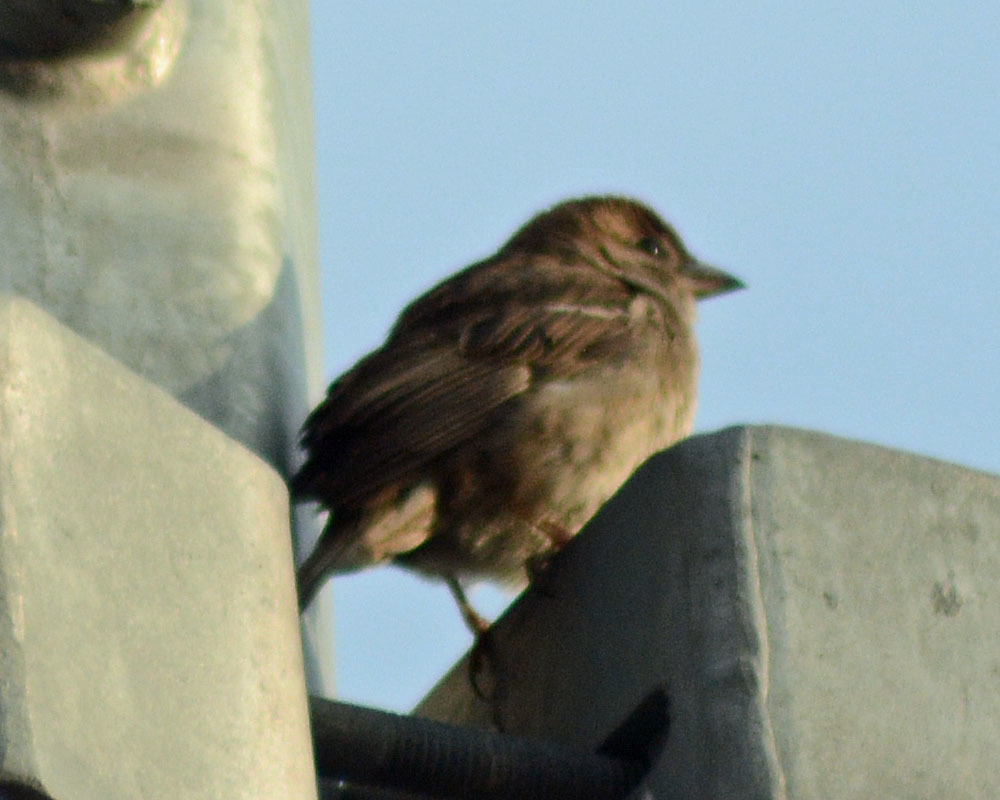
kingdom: Animalia
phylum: Chordata
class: Aves
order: Passeriformes
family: Passeridae
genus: Passer
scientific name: Passer domesticus
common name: House sparrow
